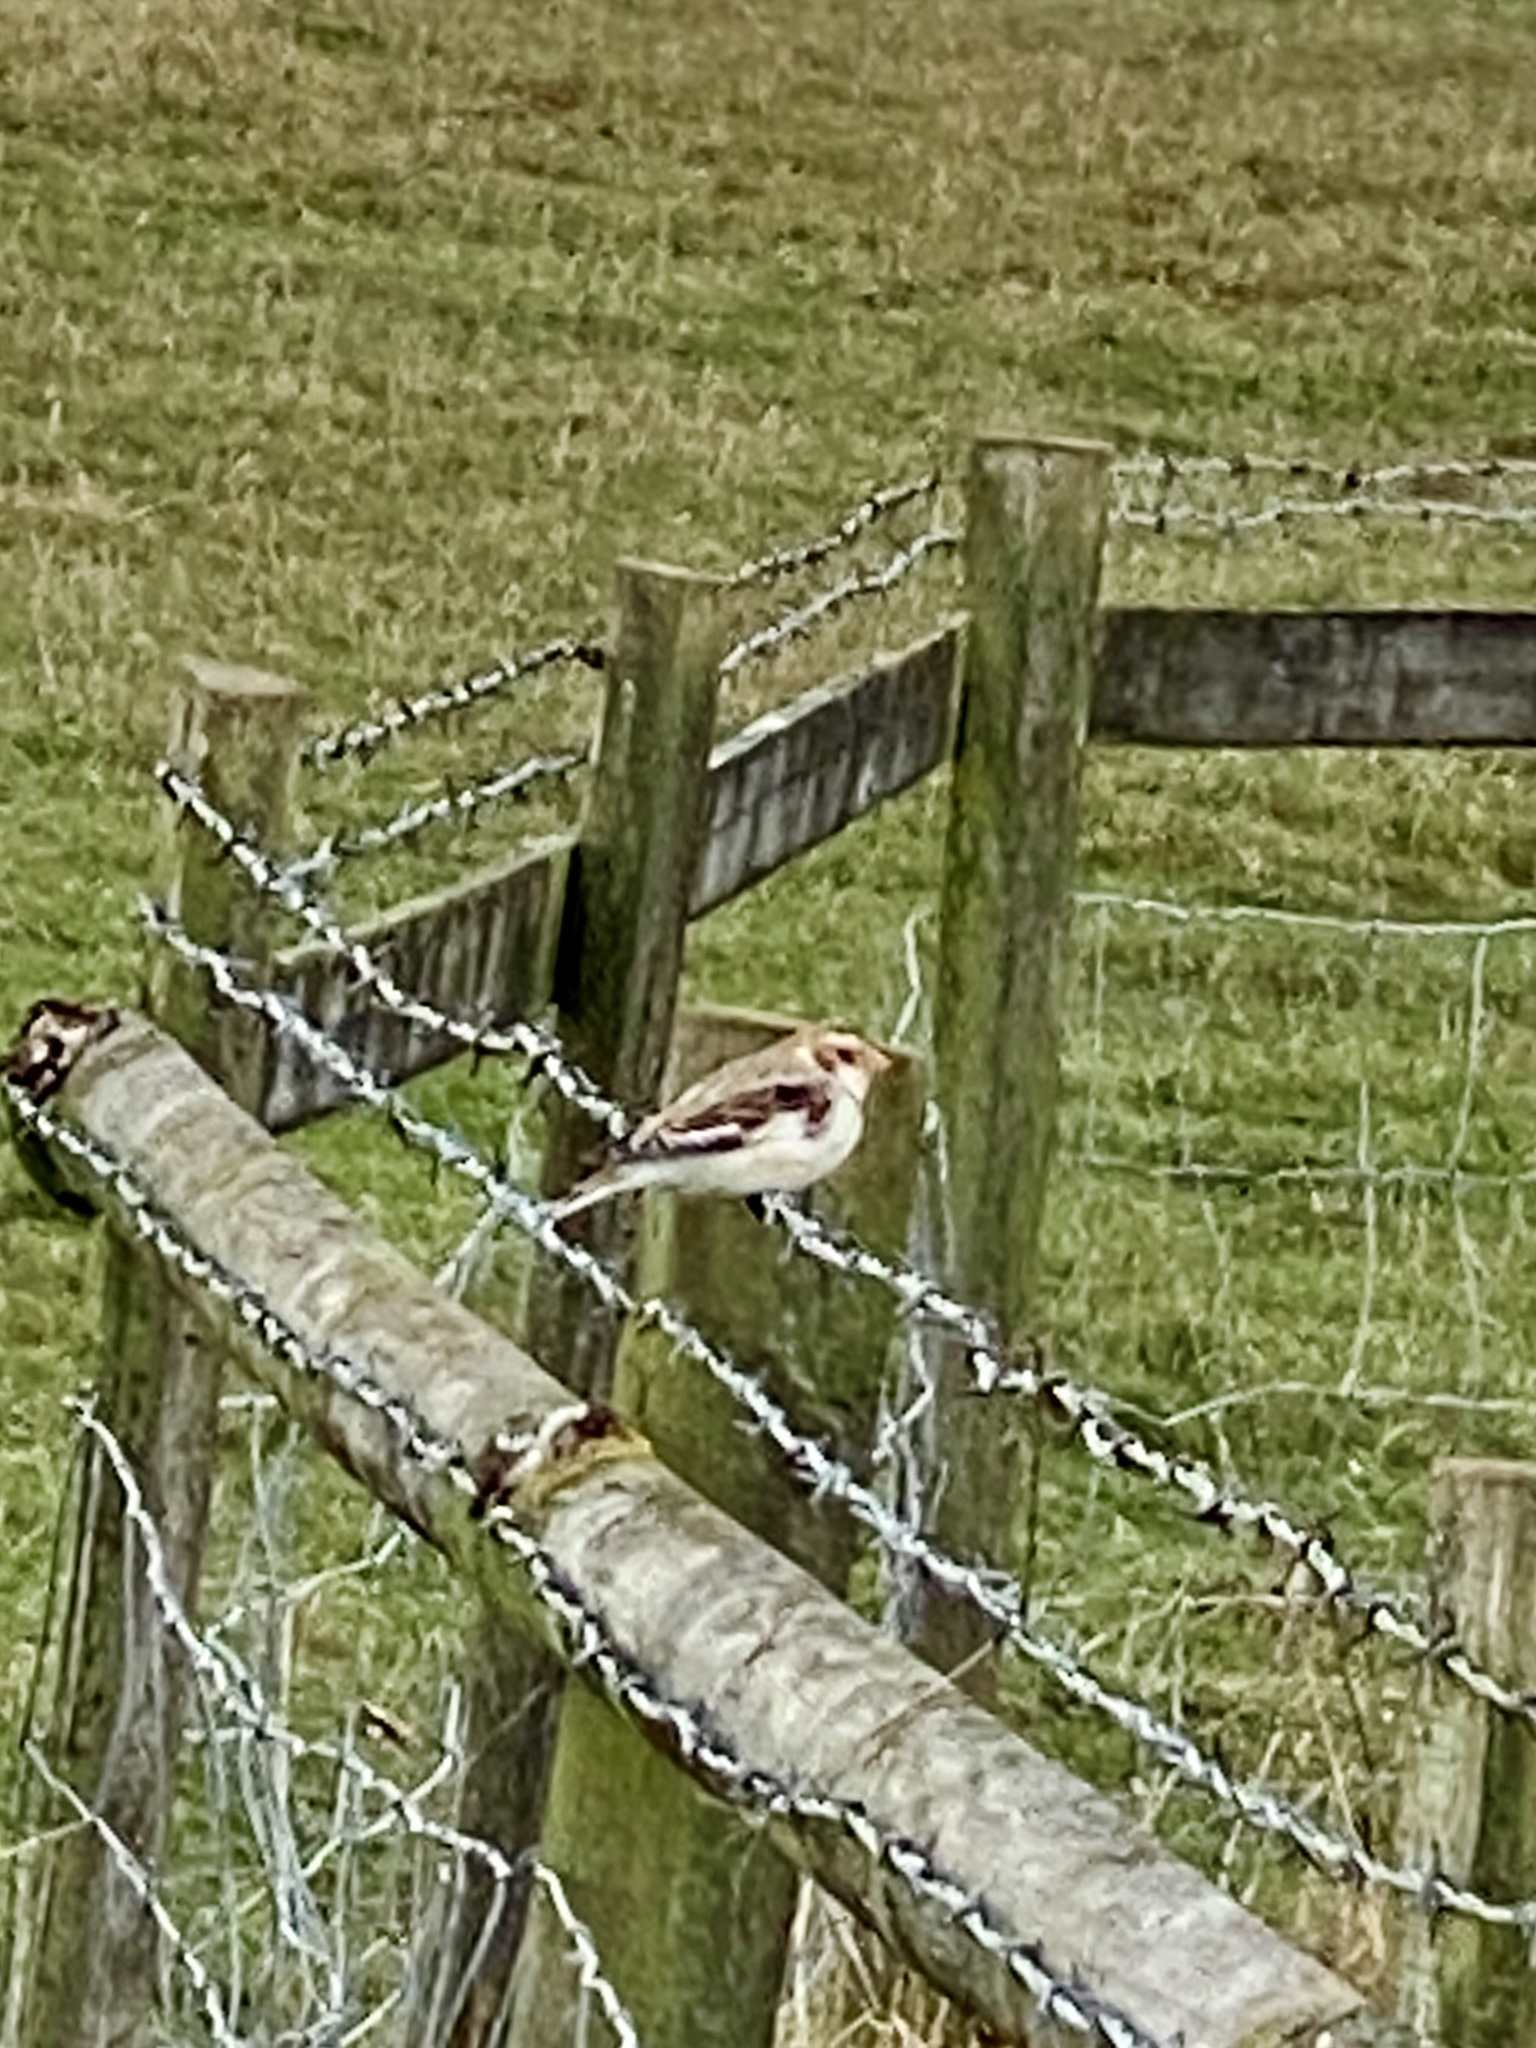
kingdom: Animalia
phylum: Chordata
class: Aves
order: Passeriformes
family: Calcariidae
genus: Plectrophenax
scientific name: Plectrophenax nivalis
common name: Snow bunting
